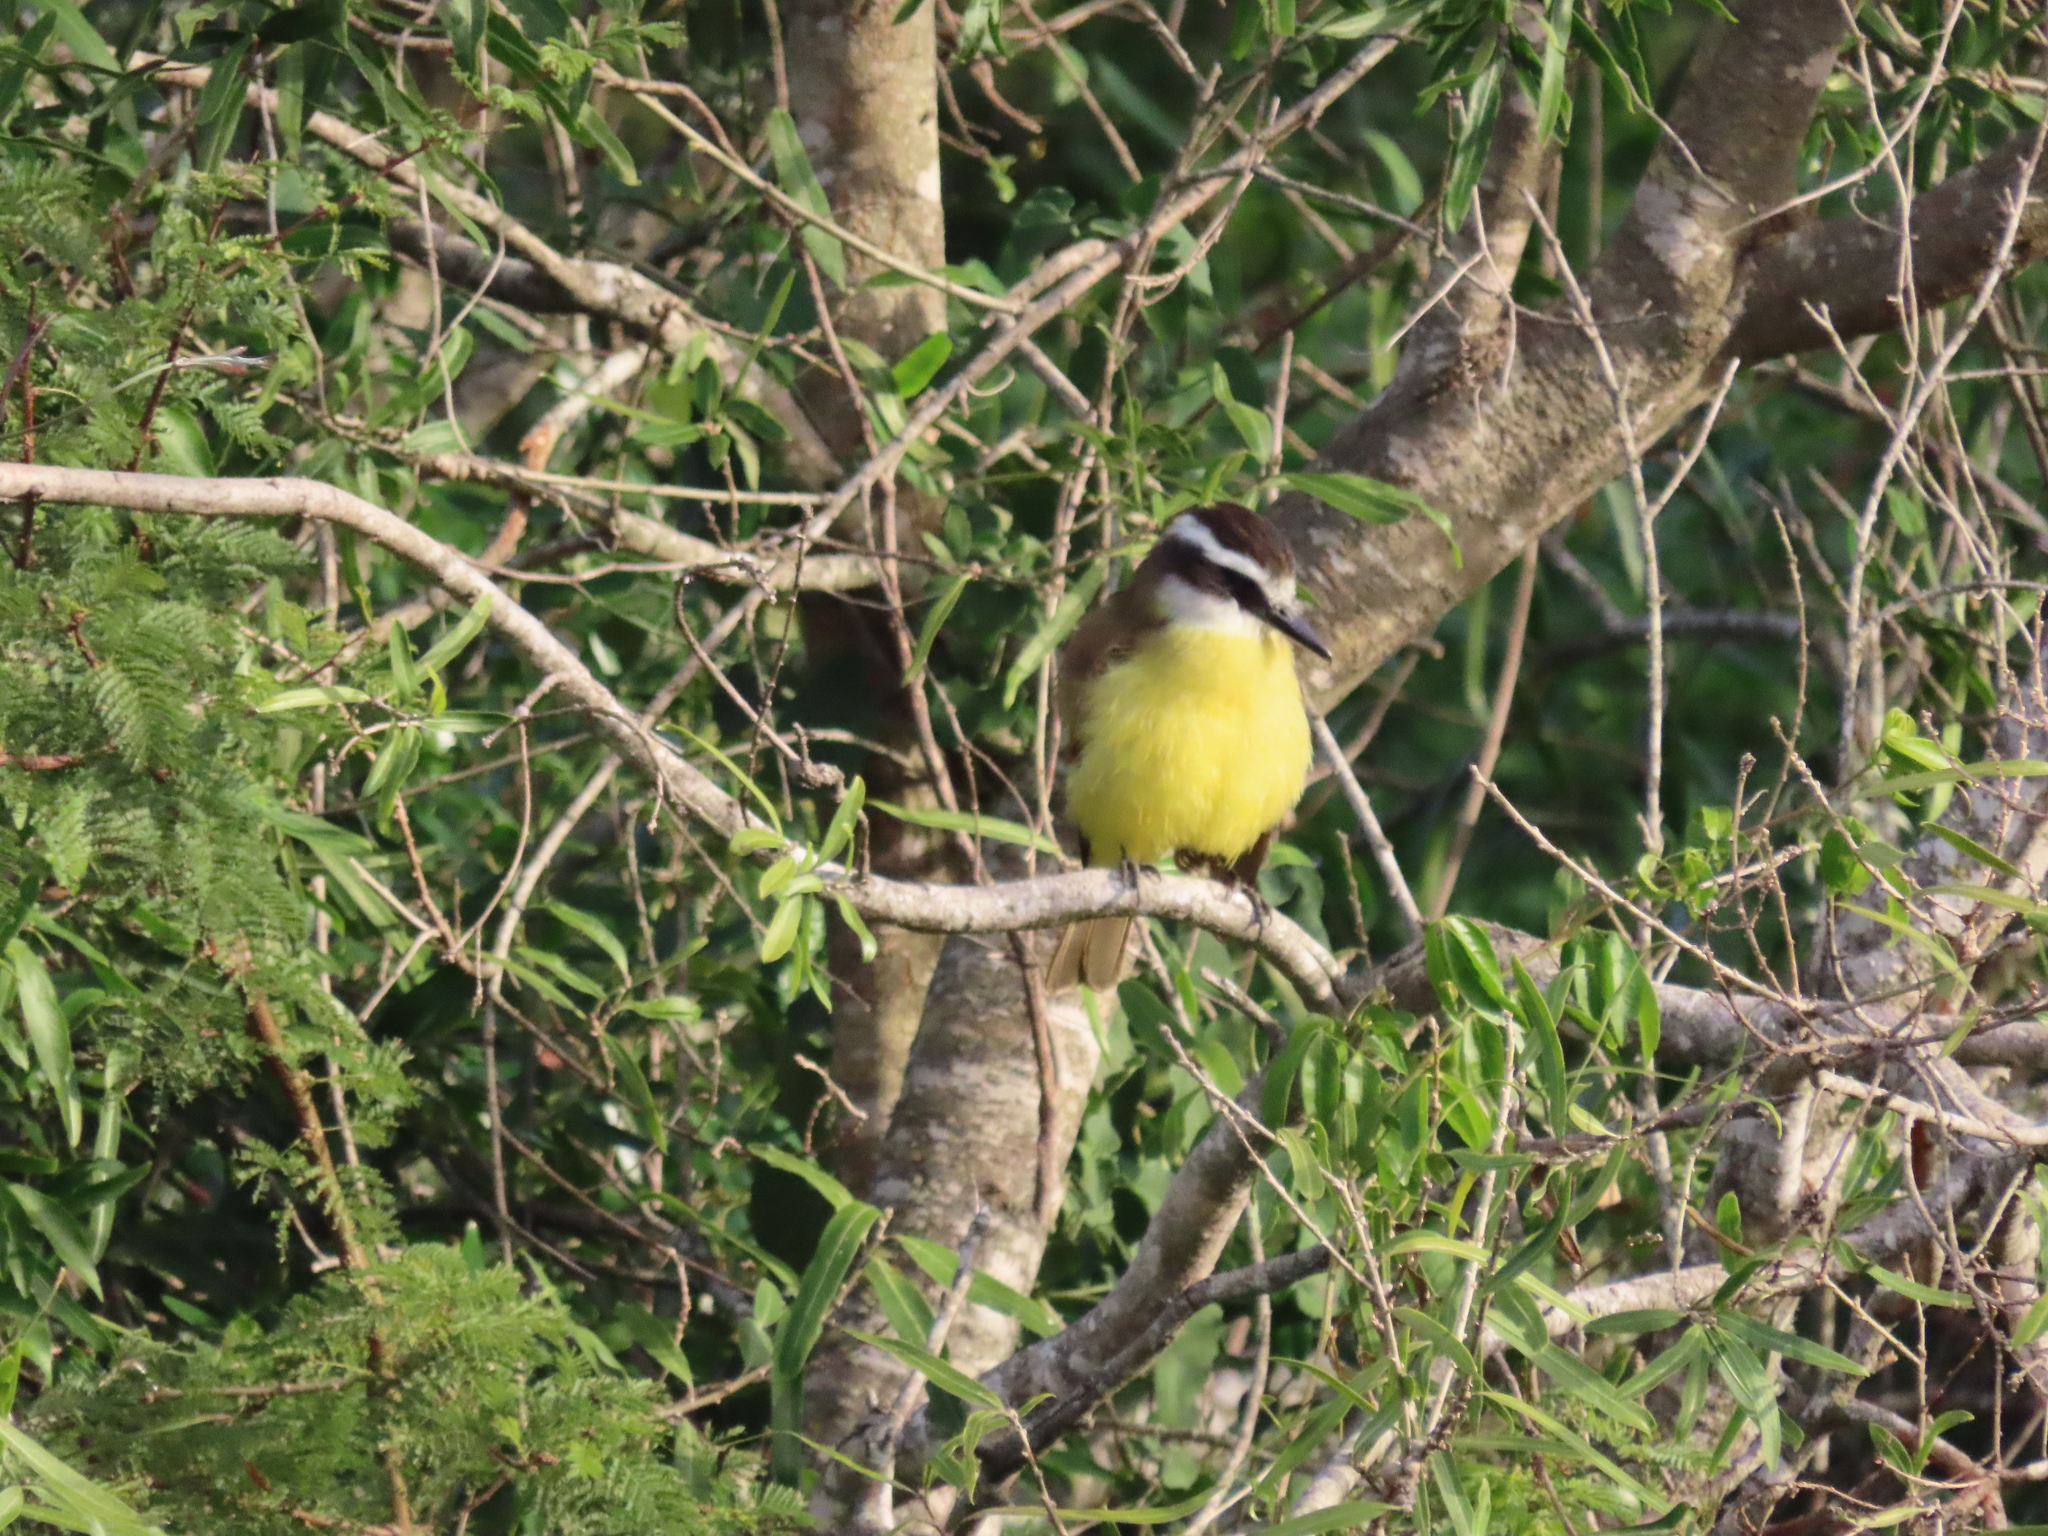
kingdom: Animalia
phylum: Chordata
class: Aves
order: Passeriformes
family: Tyrannidae
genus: Pitangus
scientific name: Pitangus sulphuratus
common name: Great kiskadee
